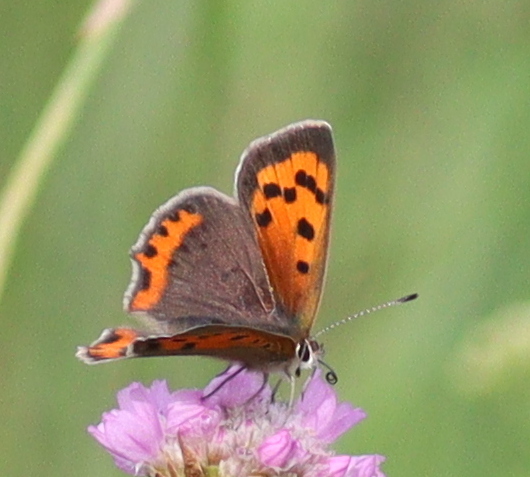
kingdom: Animalia
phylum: Arthropoda
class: Insecta
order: Lepidoptera
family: Lycaenidae
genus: Lycaena
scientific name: Lycaena phlaeas
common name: Small copper
